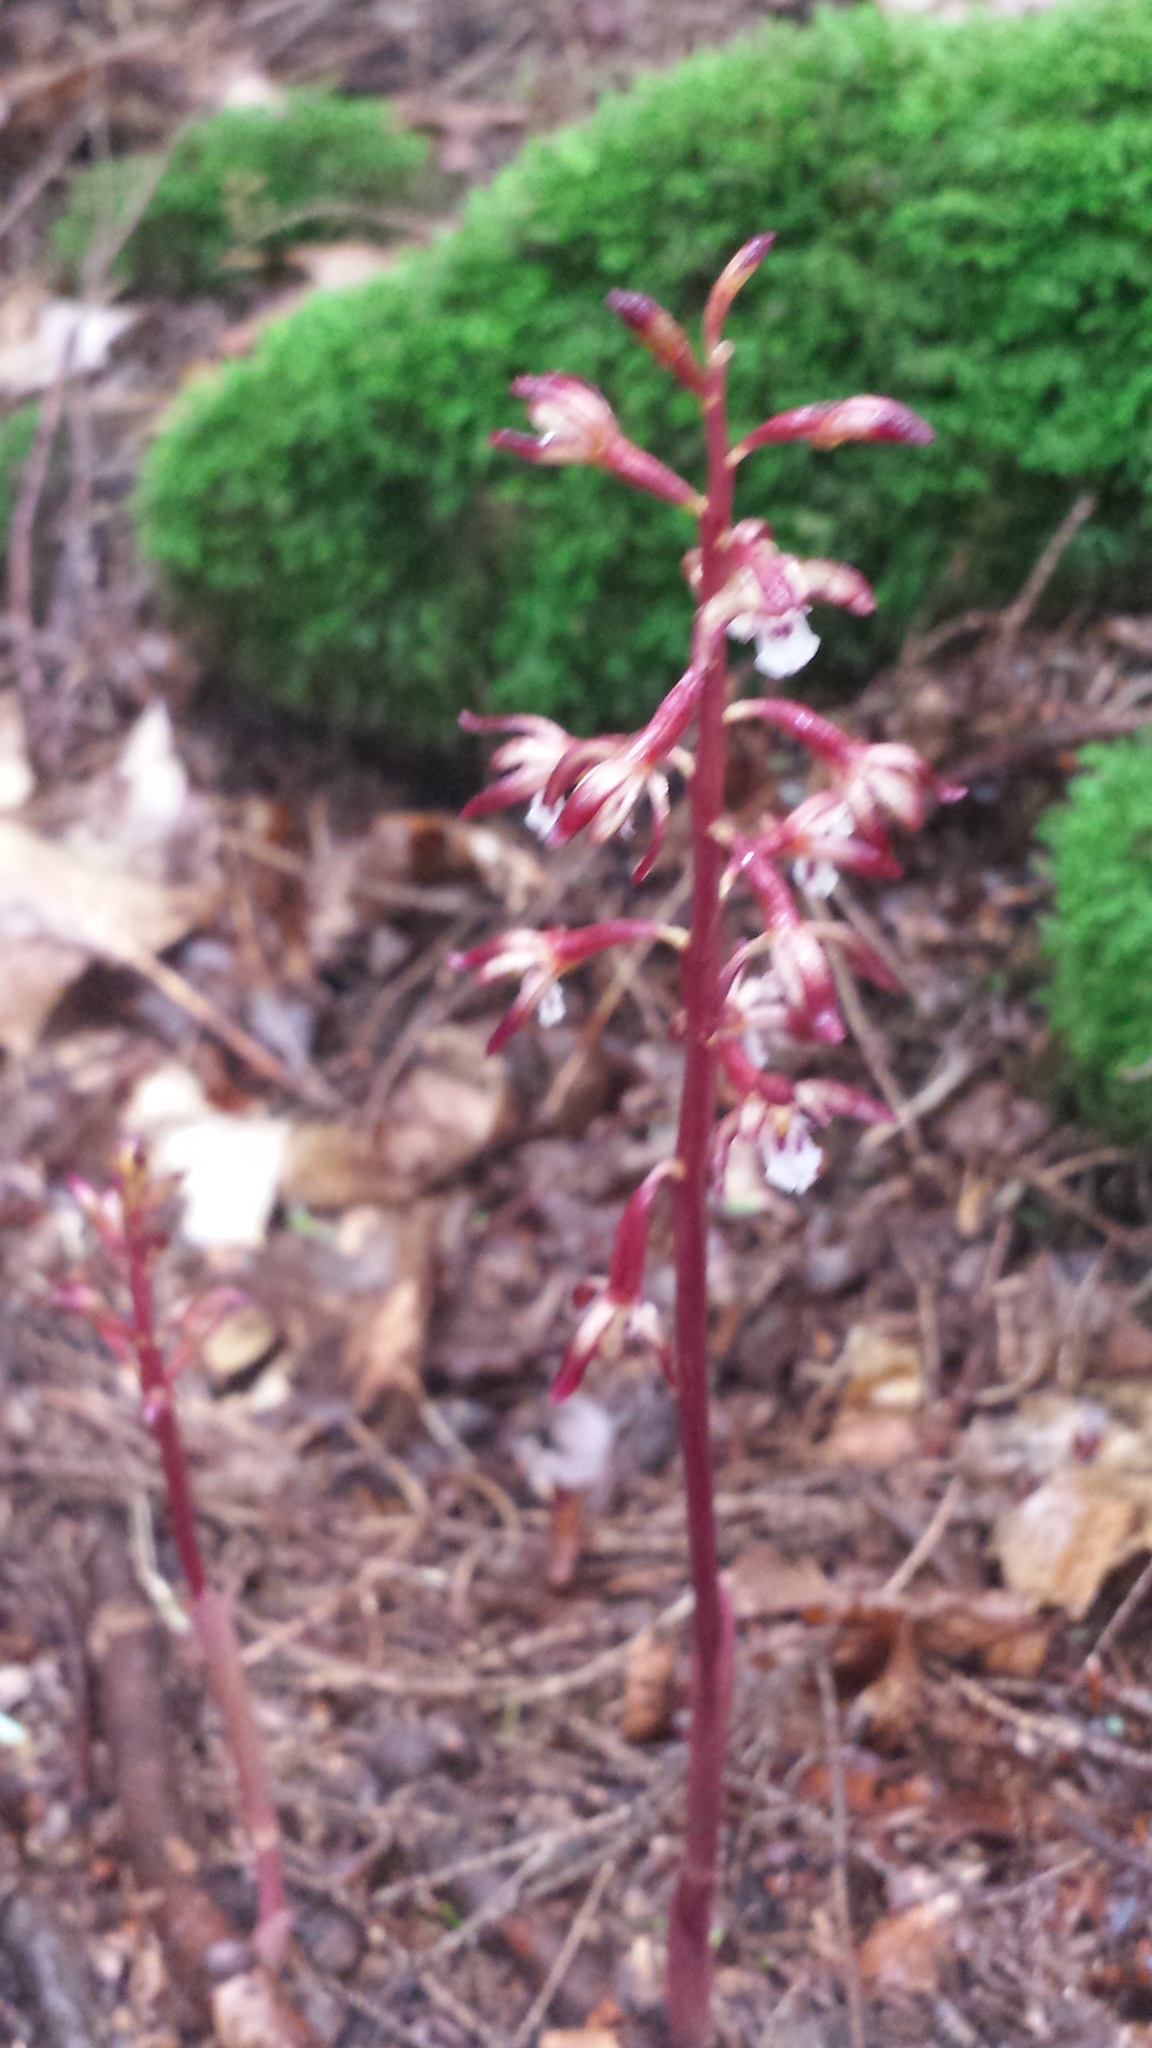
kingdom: Plantae
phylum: Tracheophyta
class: Liliopsida
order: Asparagales
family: Orchidaceae
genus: Corallorhiza
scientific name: Corallorhiza maculata
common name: Spotted coralroot
